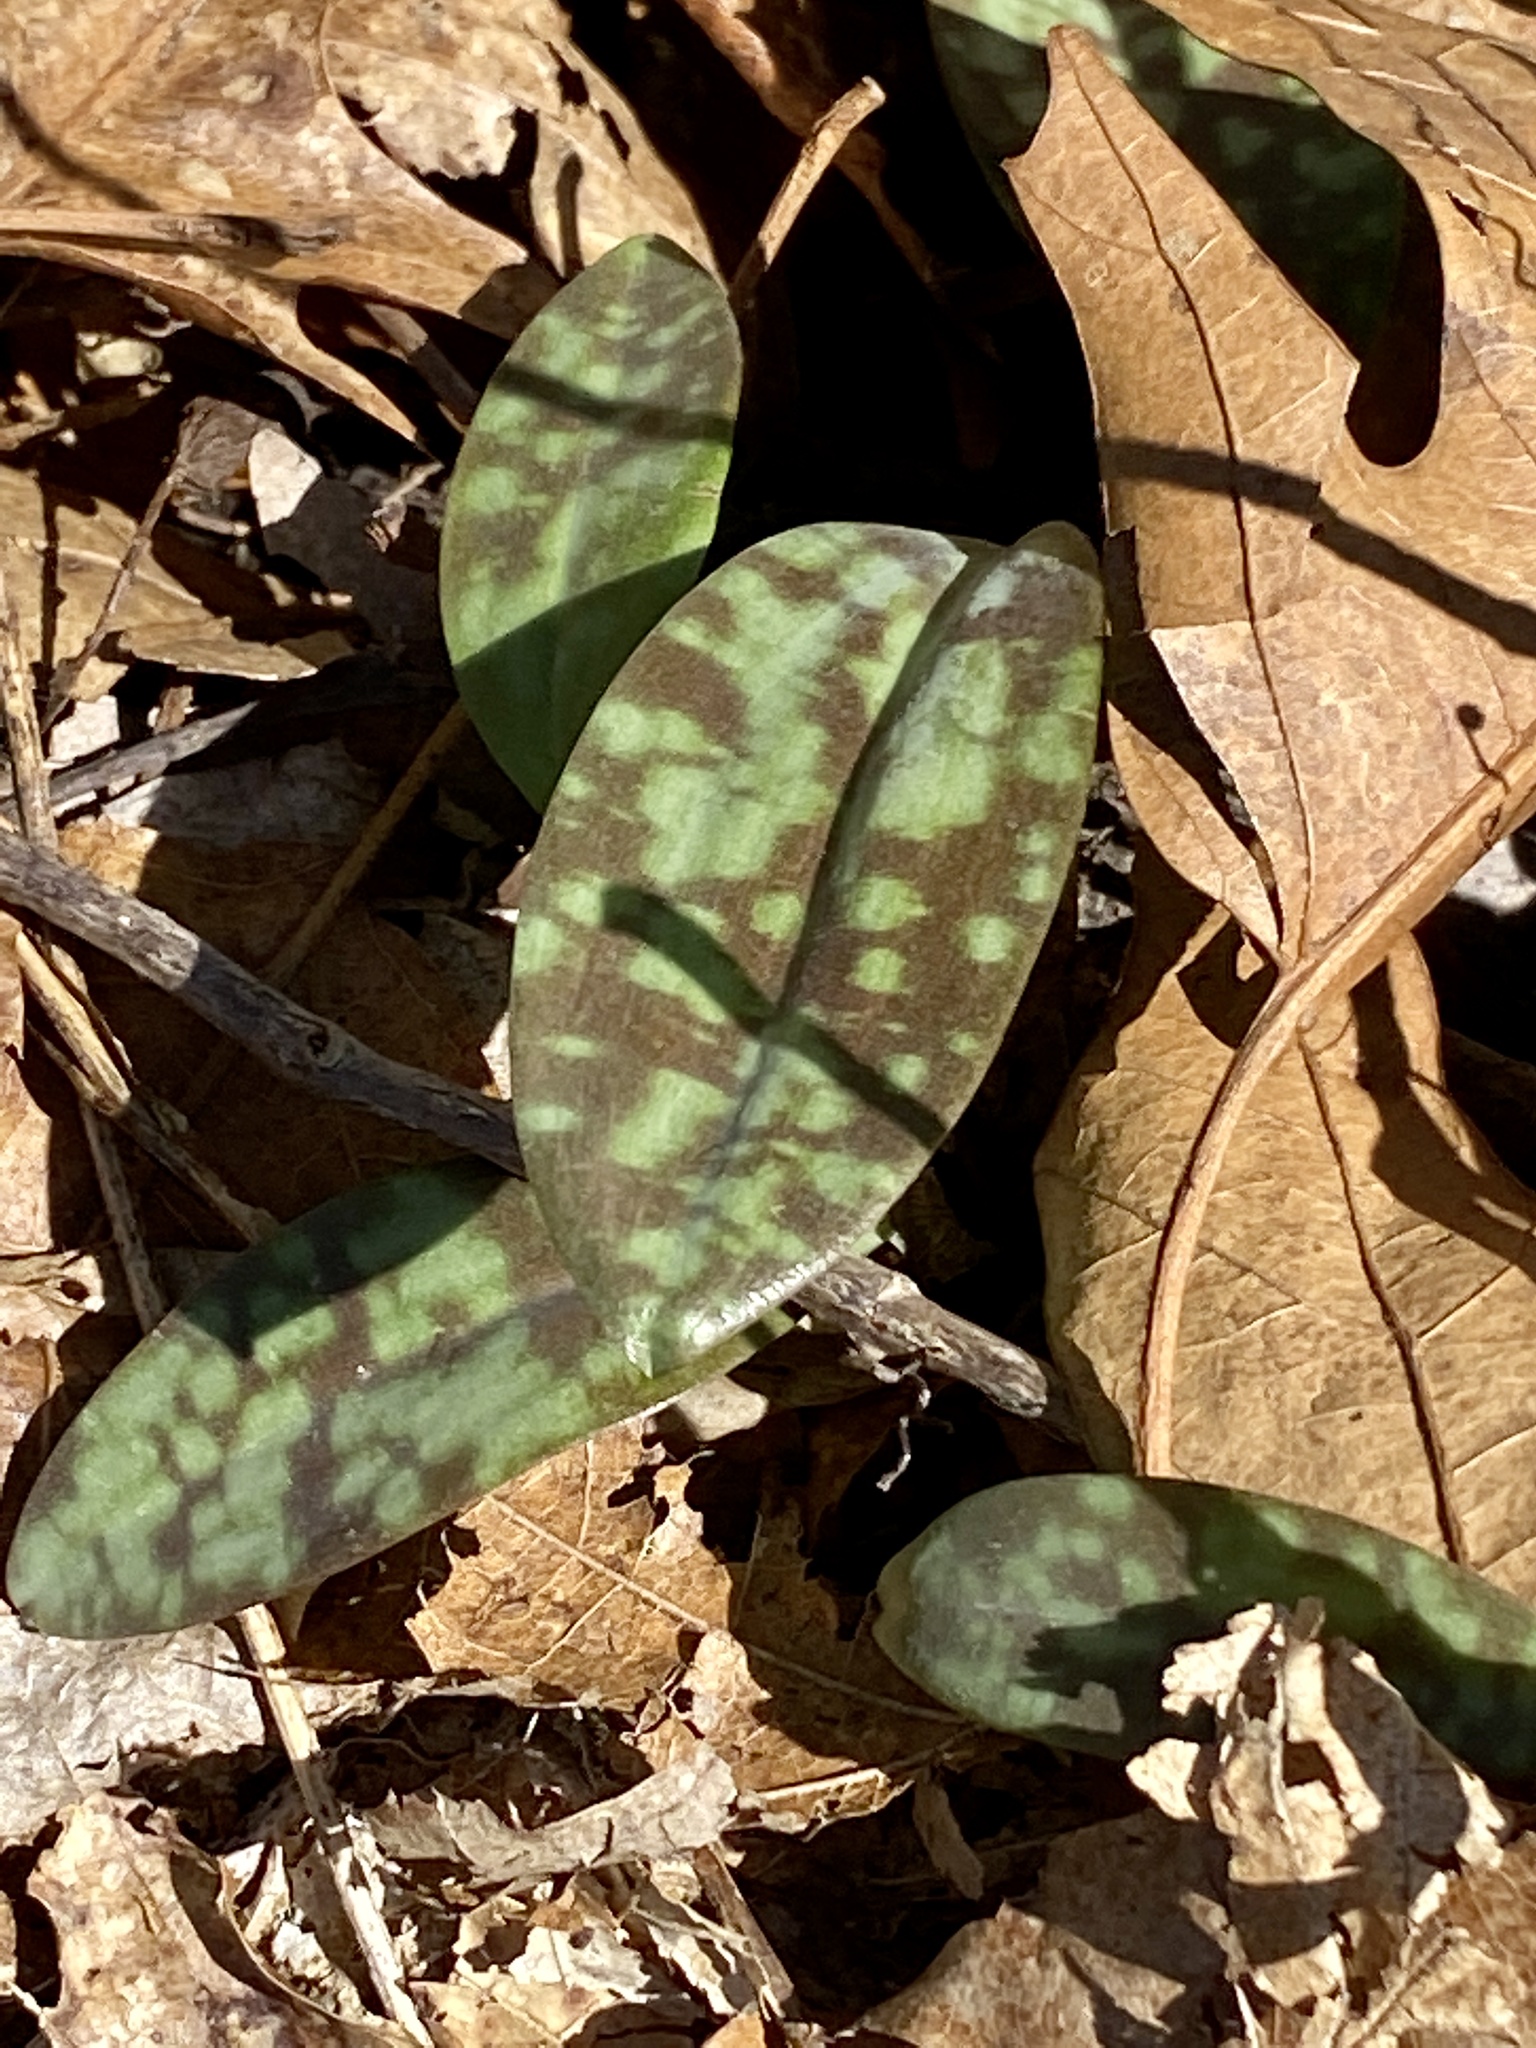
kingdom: Plantae
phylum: Tracheophyta
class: Liliopsida
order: Liliales
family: Liliaceae
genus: Erythronium
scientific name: Erythronium americanum
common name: Yellow adder's-tongue
